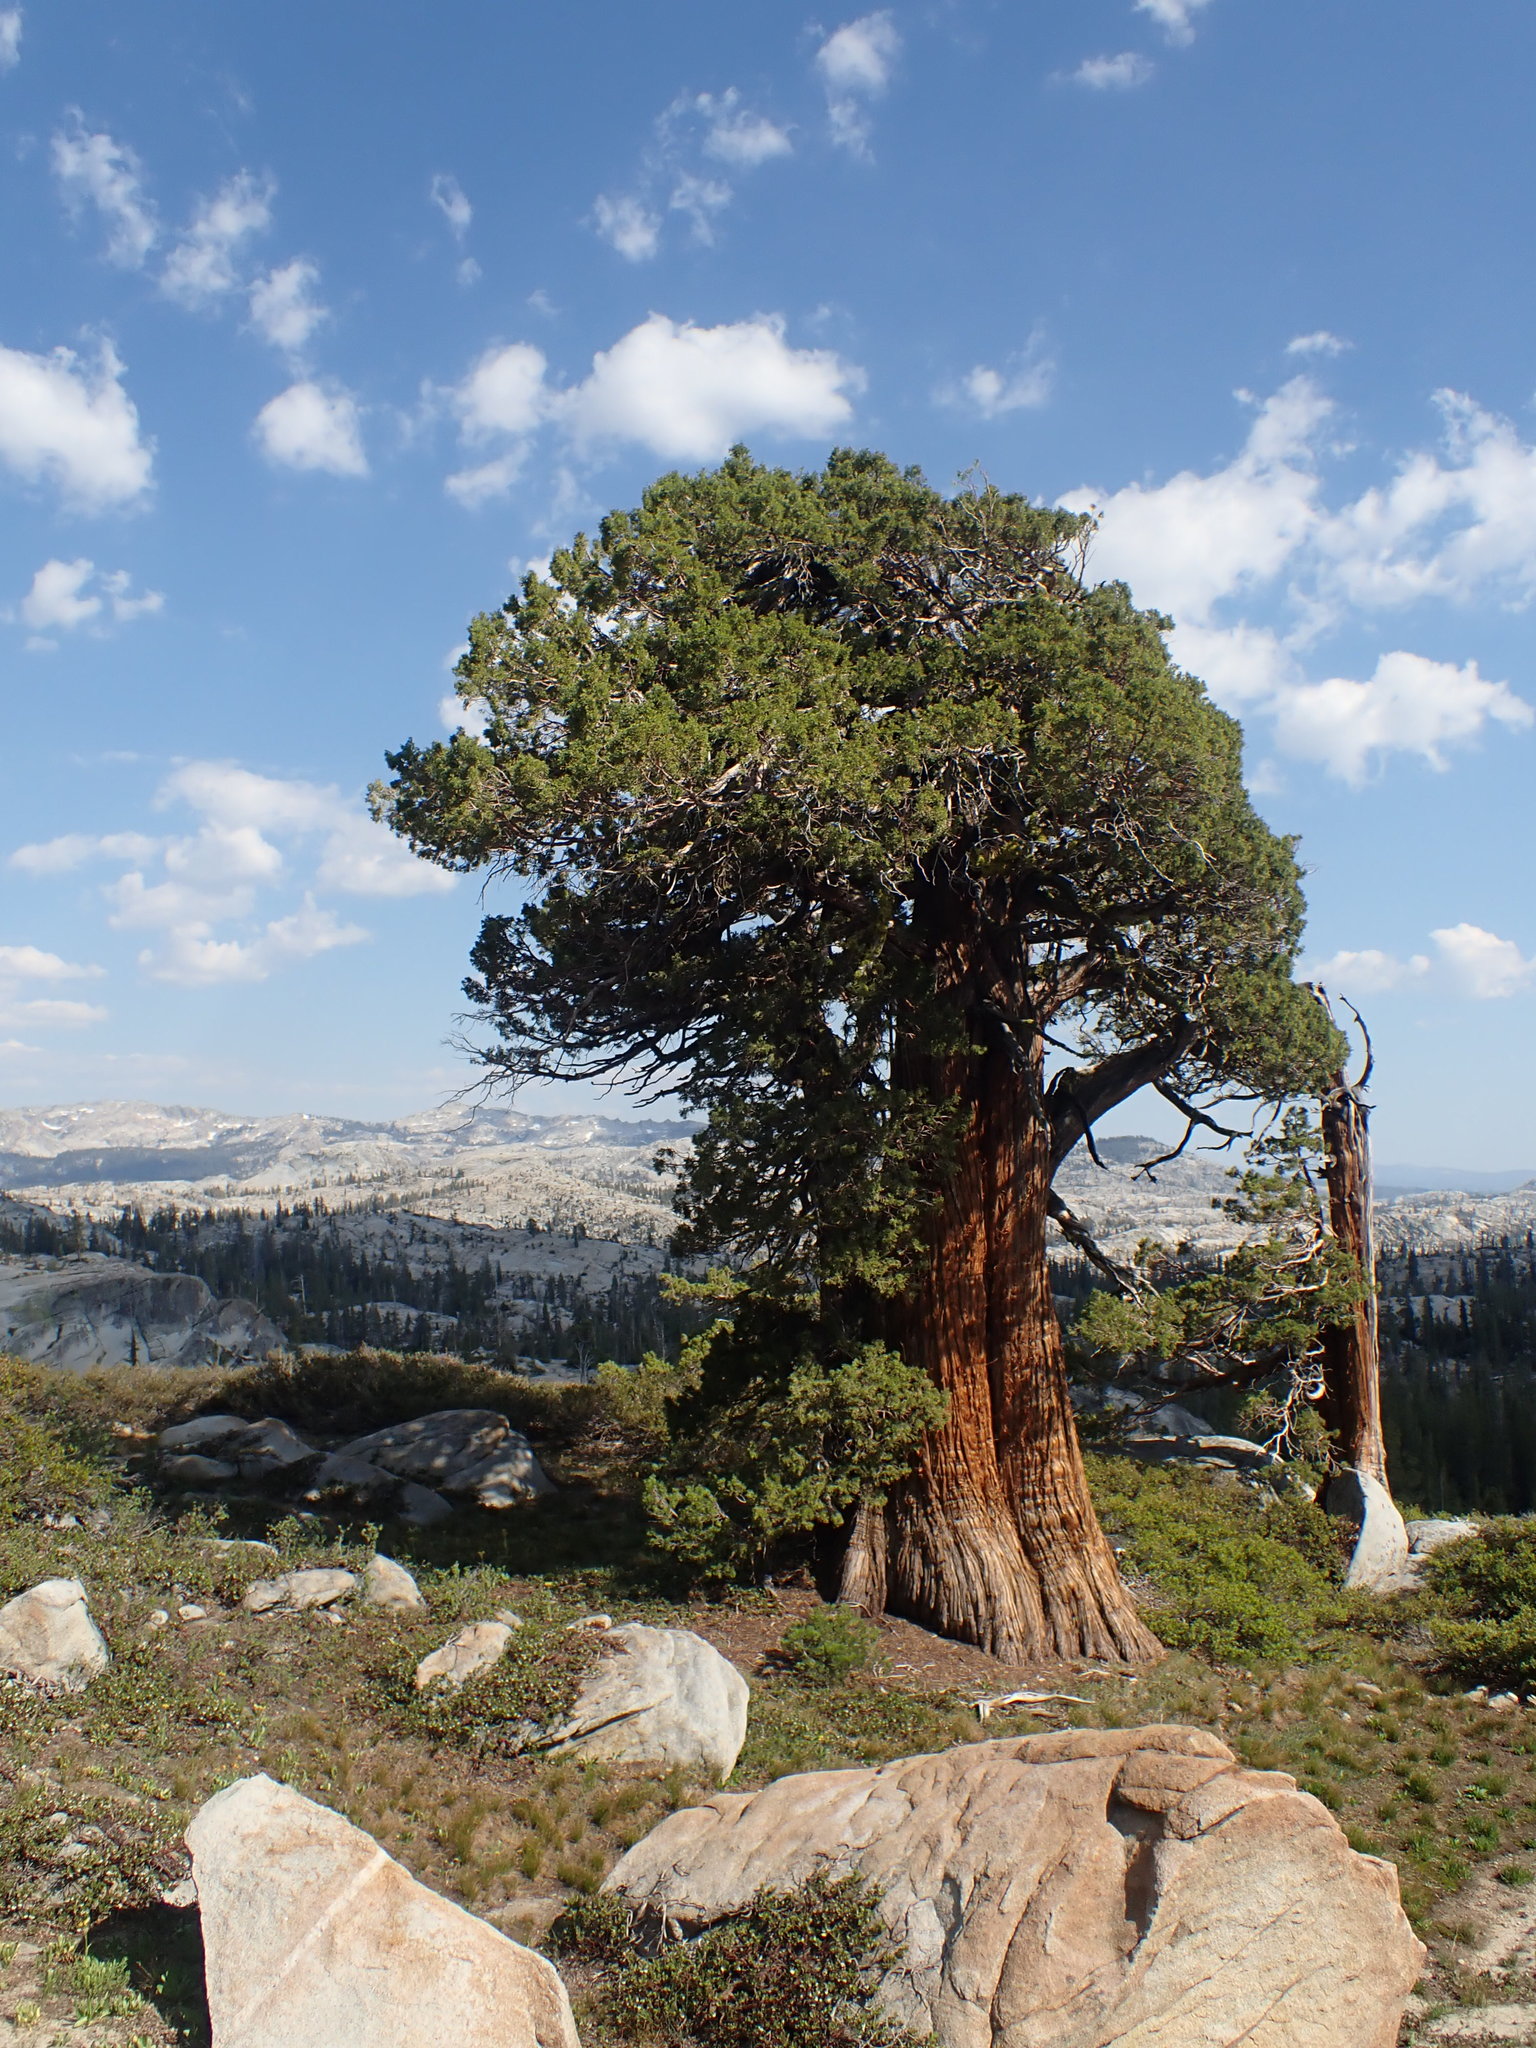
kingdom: Plantae
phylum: Tracheophyta
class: Pinopsida
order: Pinales
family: Cupressaceae
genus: Juniperus
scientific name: Juniperus occidentalis
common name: Western juniper
